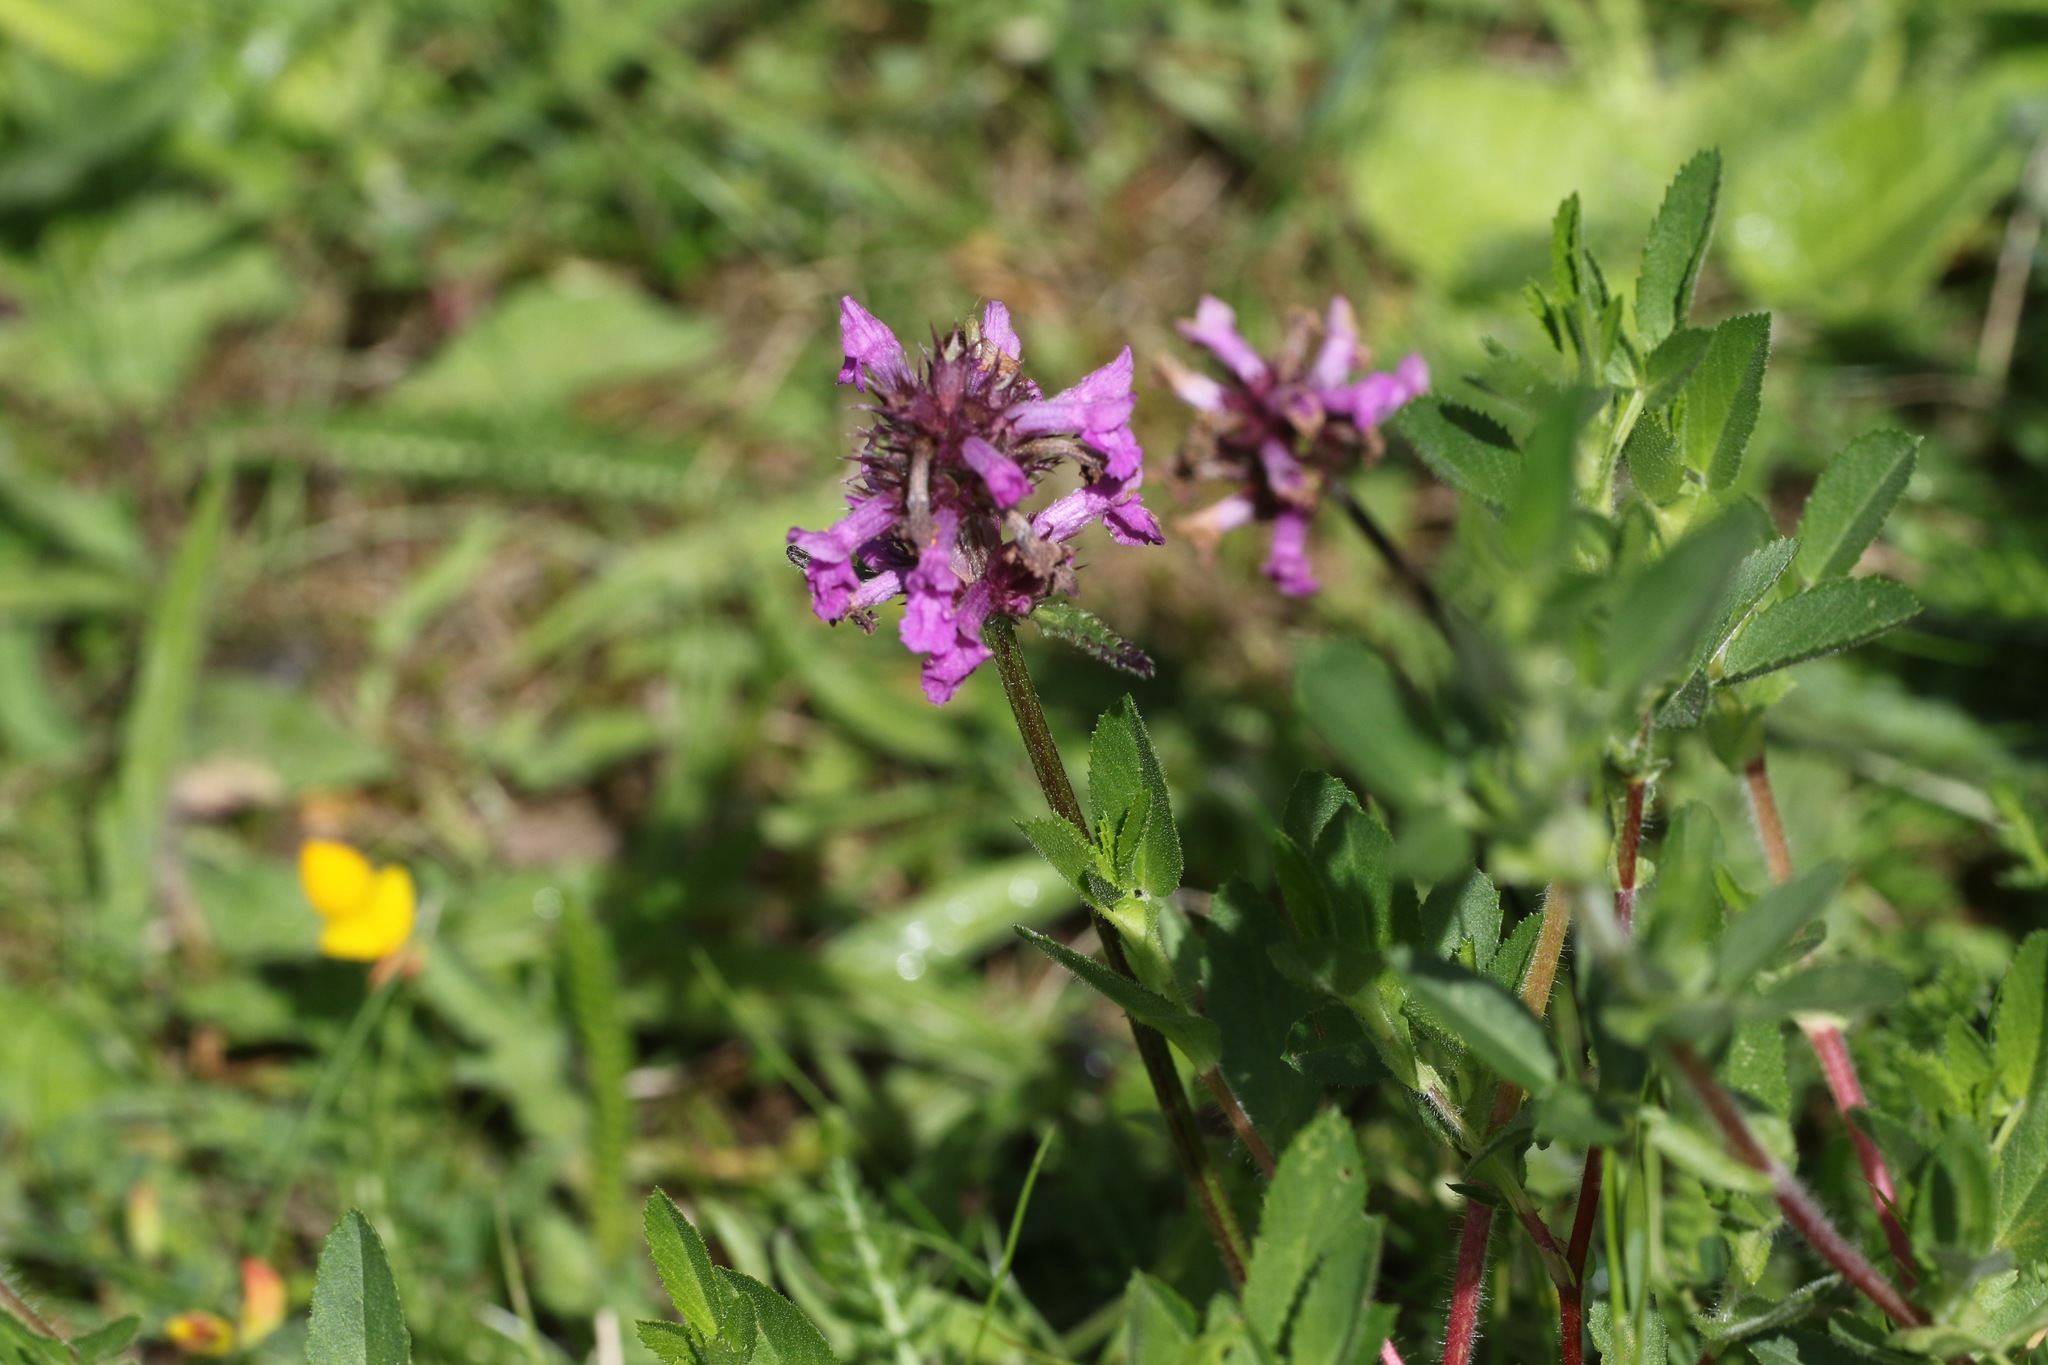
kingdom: Plantae
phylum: Tracheophyta
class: Magnoliopsida
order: Lamiales
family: Lamiaceae
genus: Betonica
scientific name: Betonica officinalis
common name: Bishop's-wort
